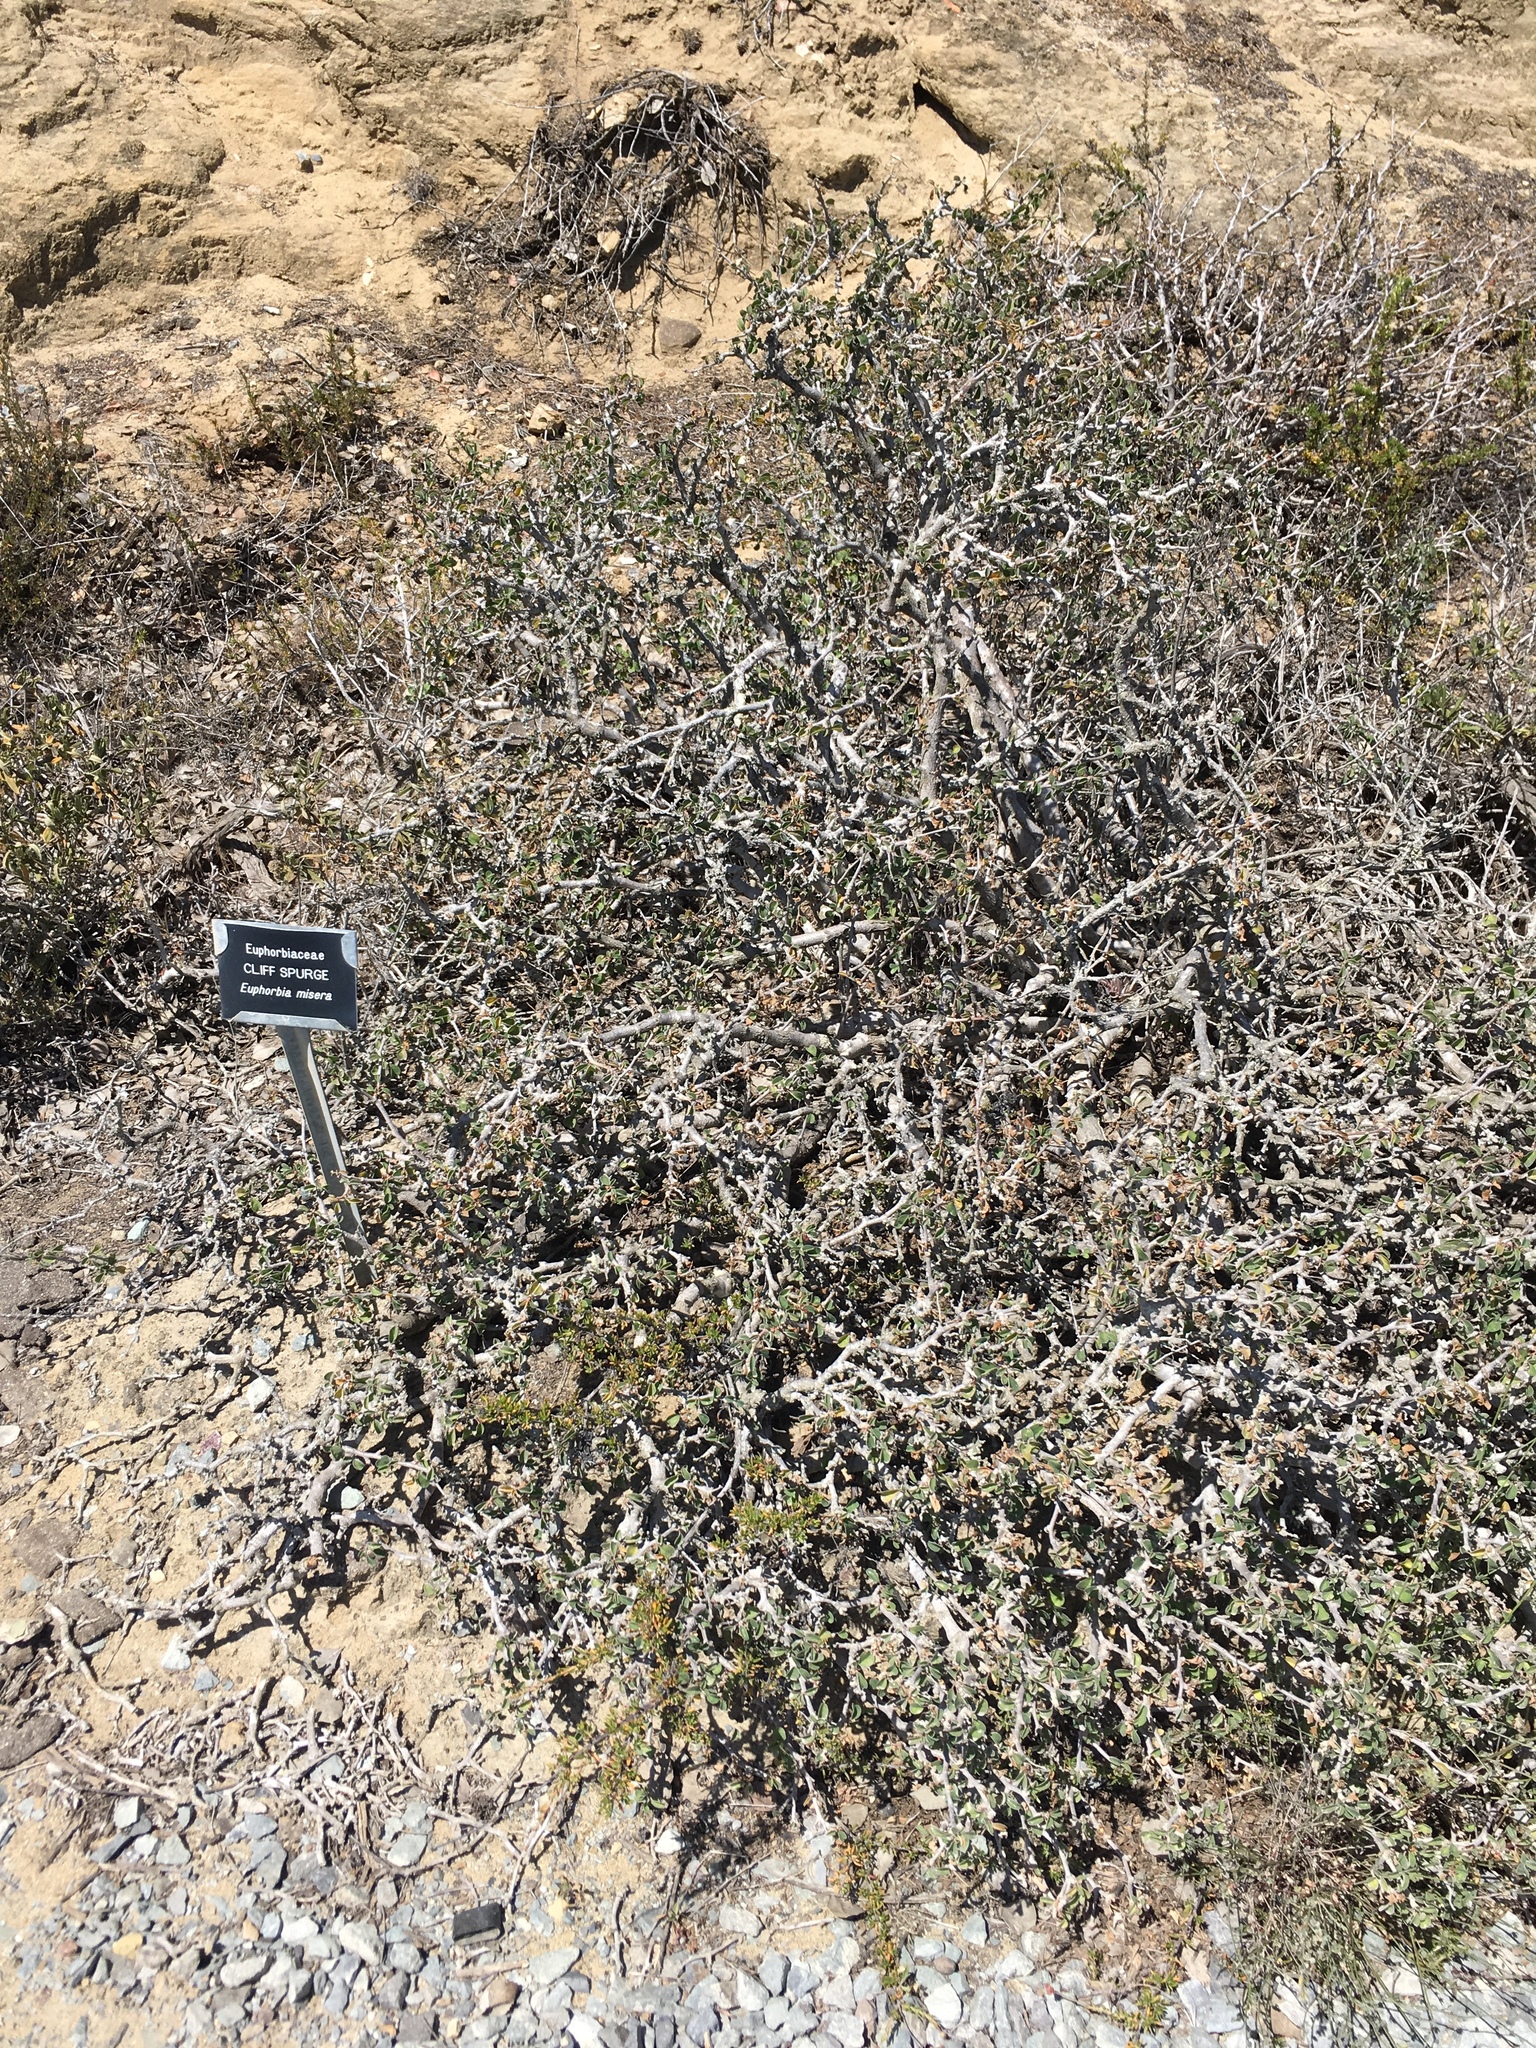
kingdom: Plantae
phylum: Tracheophyta
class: Magnoliopsida
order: Malpighiales
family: Euphorbiaceae
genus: Euphorbia
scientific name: Euphorbia misera
